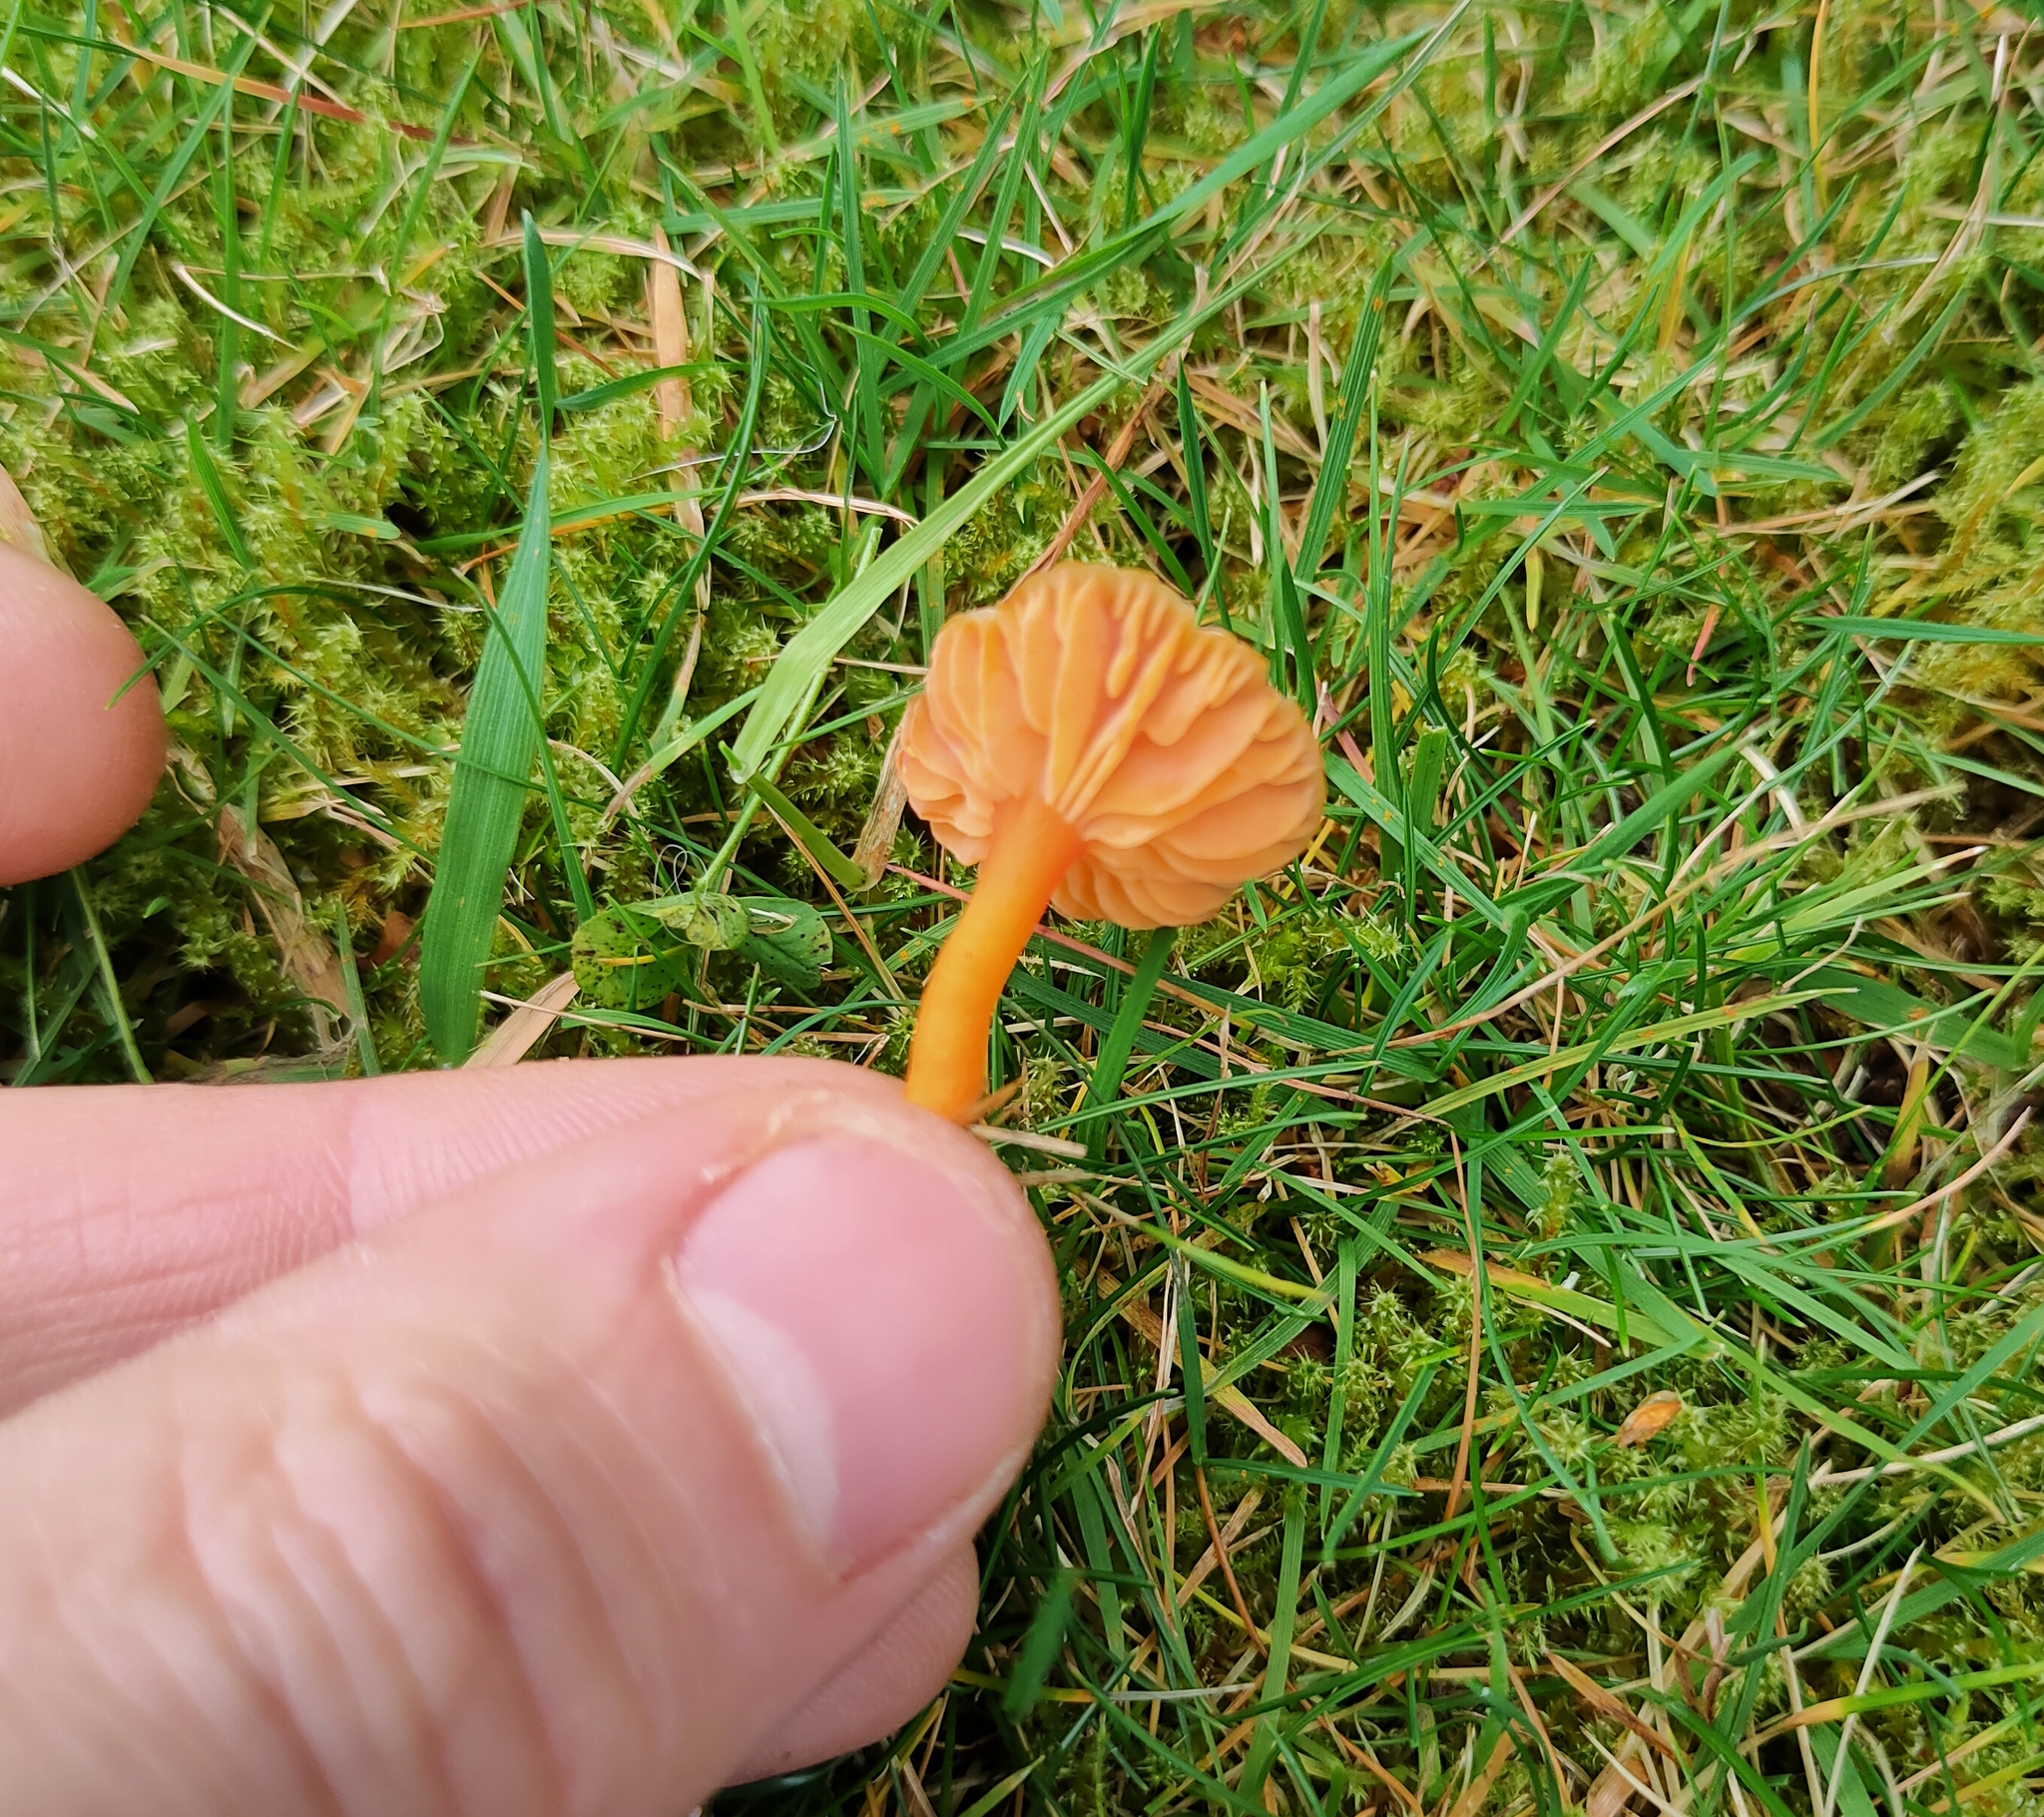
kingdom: Fungi
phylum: Basidiomycota
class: Agaricomycetes
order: Agaricales
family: Hygrophoraceae
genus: Hygrocybe
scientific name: Hygrocybe reidii
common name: Honey waxcap
